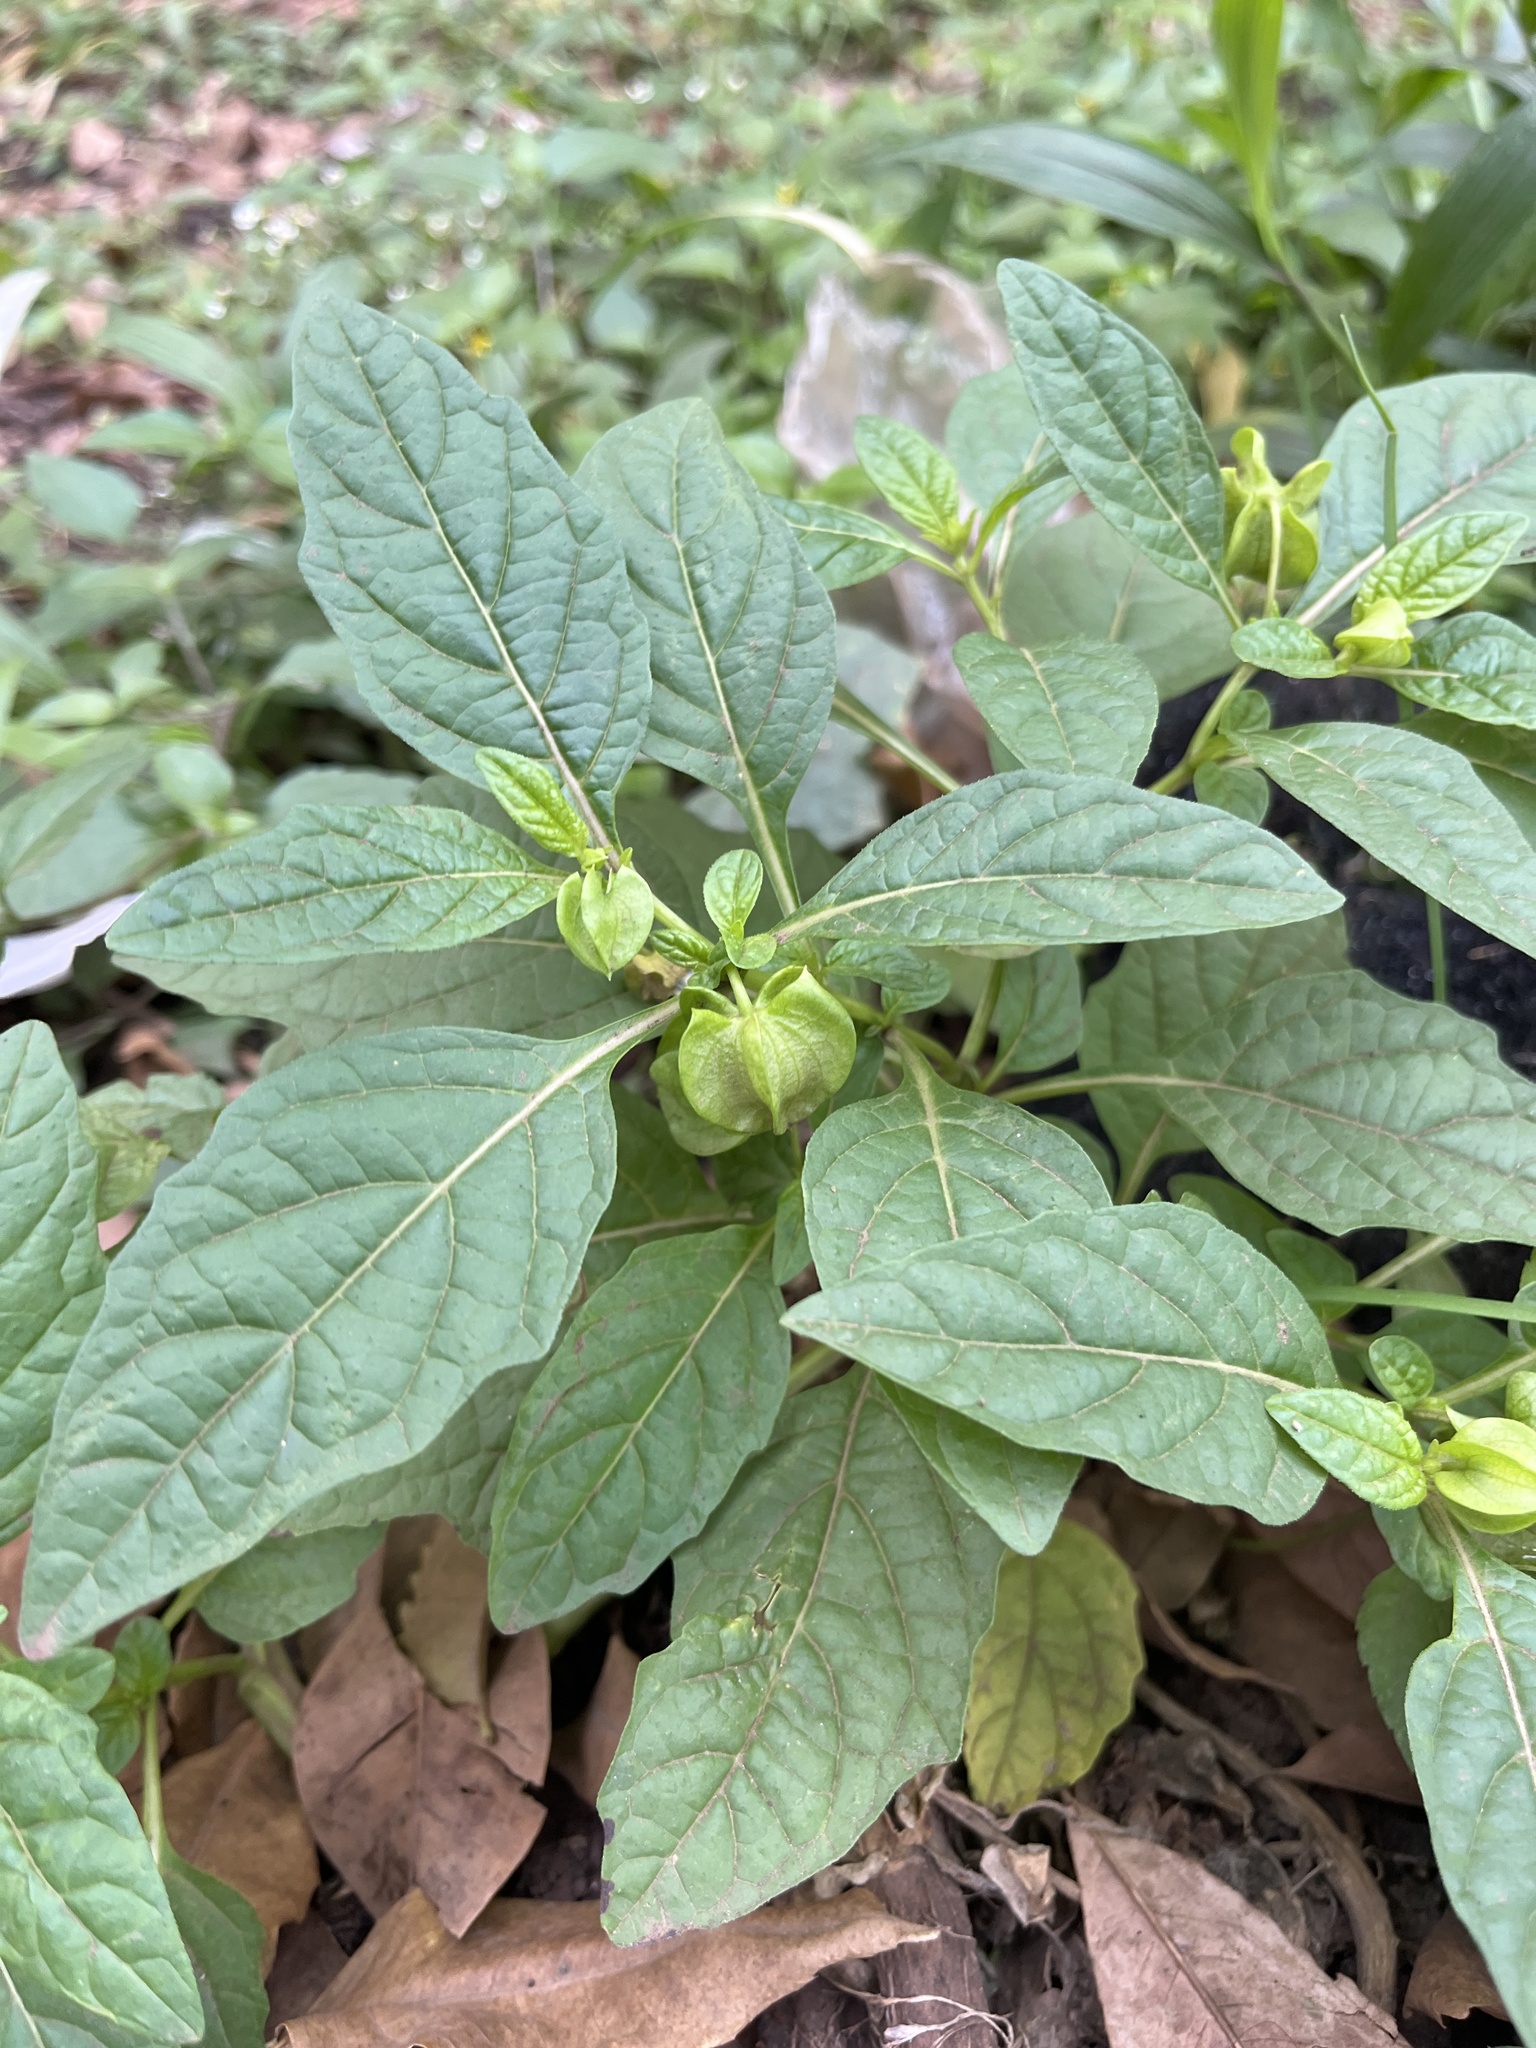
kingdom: Plantae
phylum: Tracheophyta
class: Magnoliopsida
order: Solanales
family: Solanaceae
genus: Nicandra
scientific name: Nicandra physalodes
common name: Apple-of-peru
